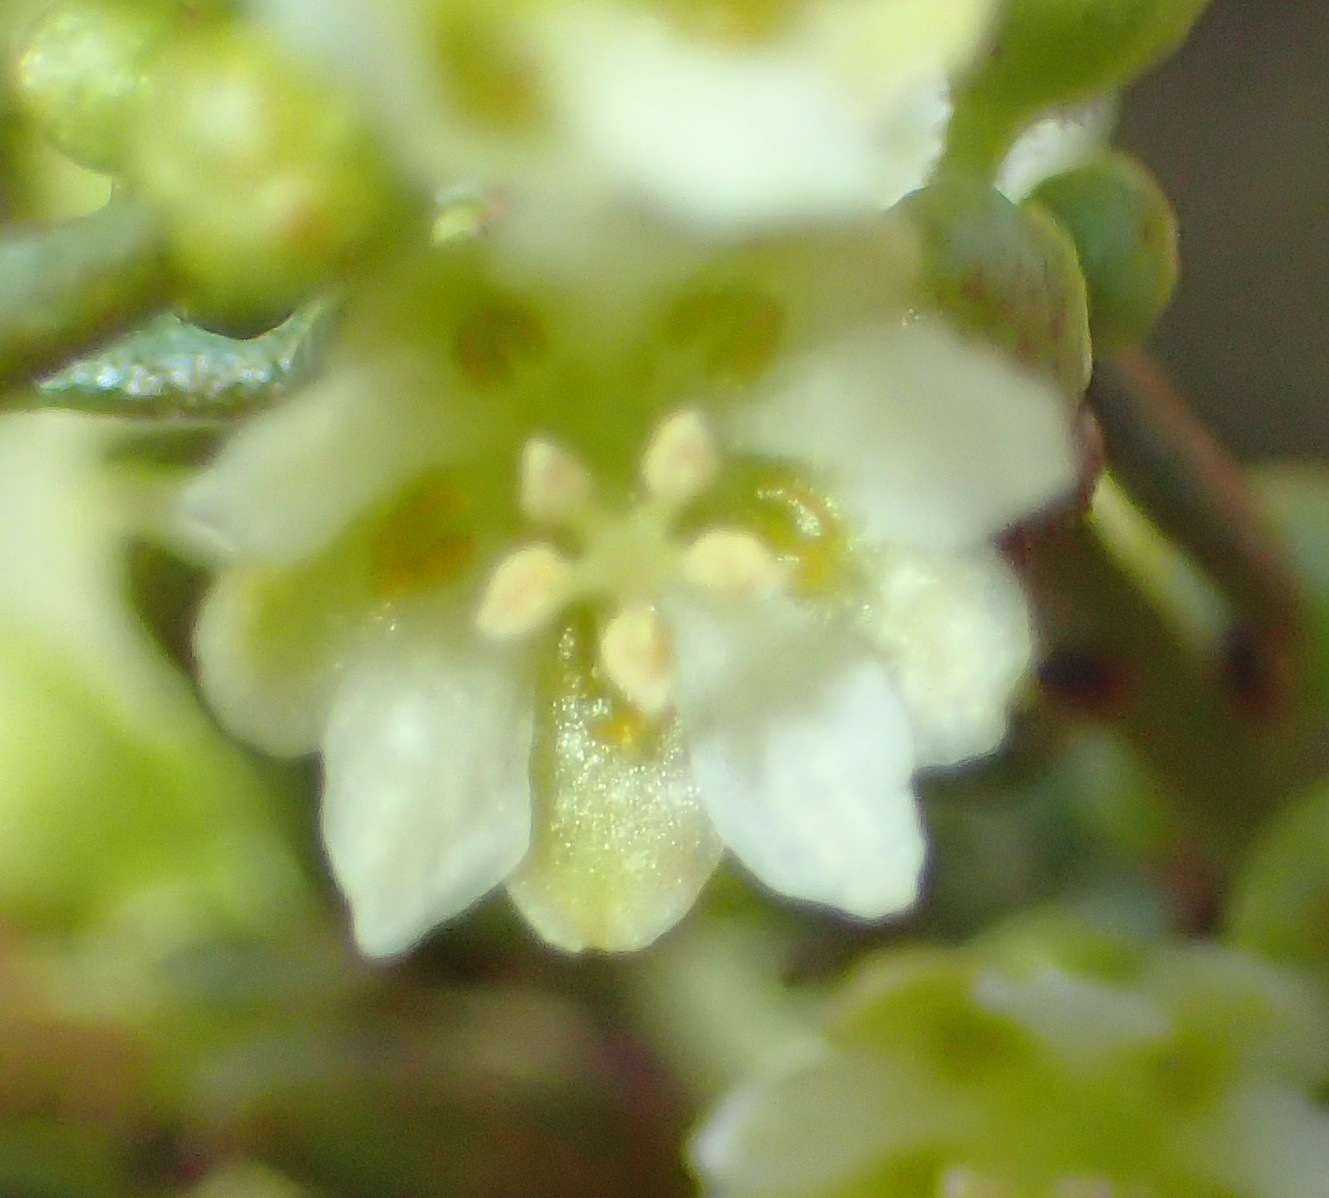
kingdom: Plantae
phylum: Tracheophyta
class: Magnoliopsida
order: Malpighiales
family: Peraceae
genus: Clutia
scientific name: Clutia daphnoides
